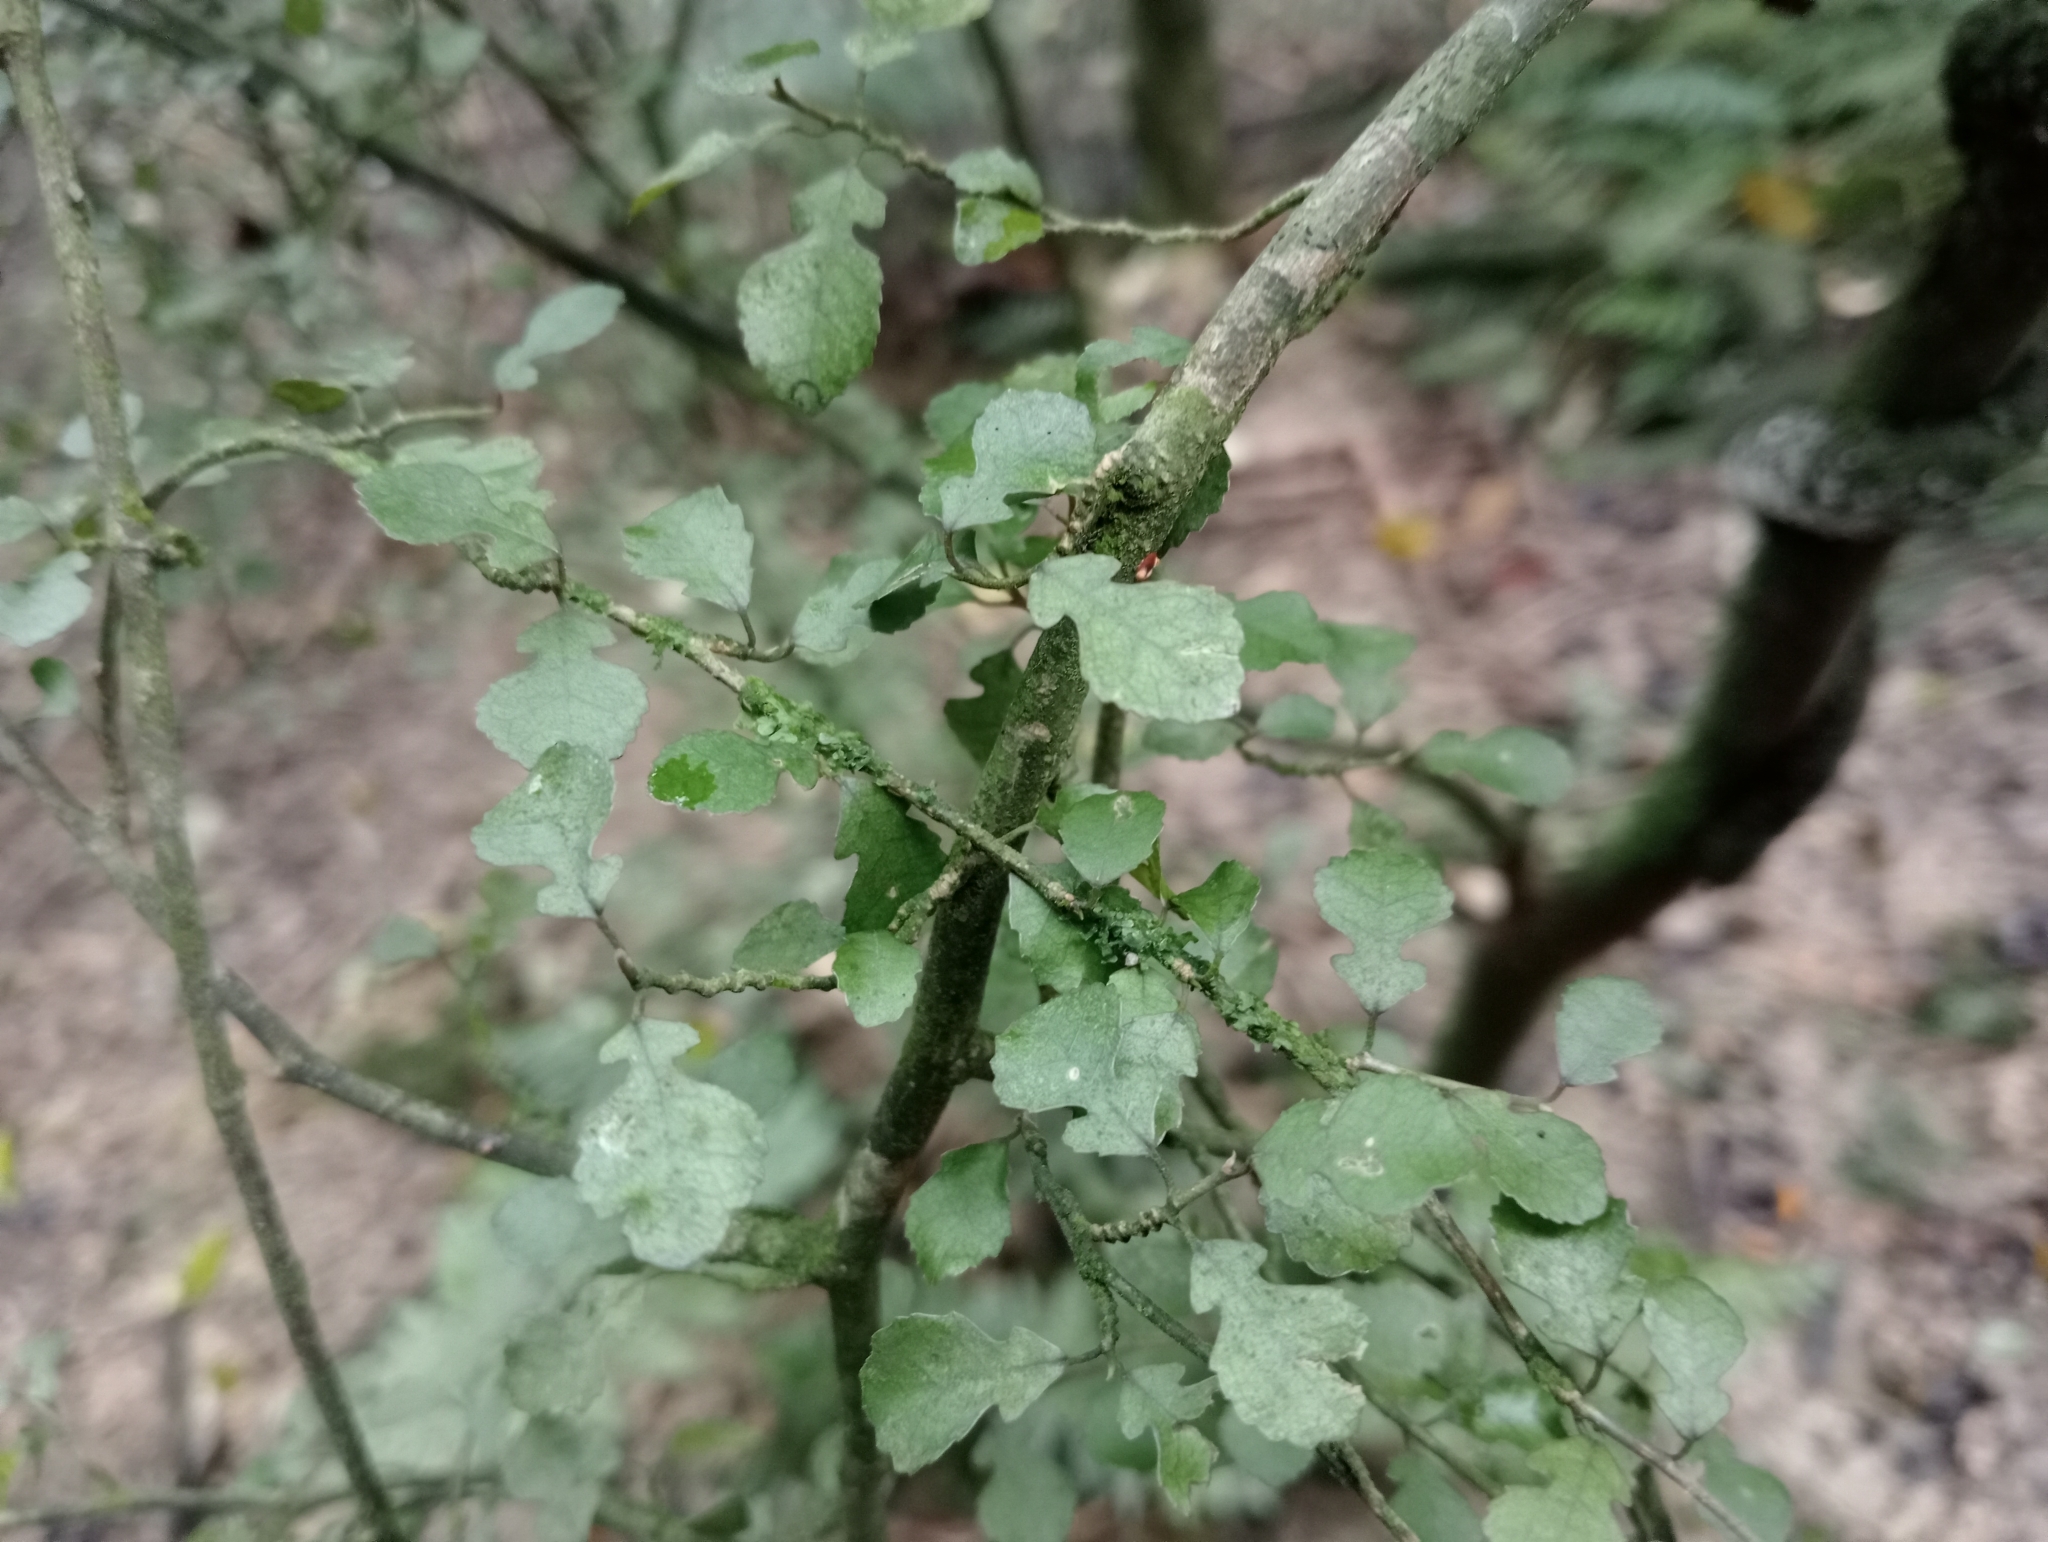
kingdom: Plantae
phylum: Tracheophyta
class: Magnoliopsida
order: Rosales
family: Moraceae
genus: Paratrophis
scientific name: Paratrophis microphylla
